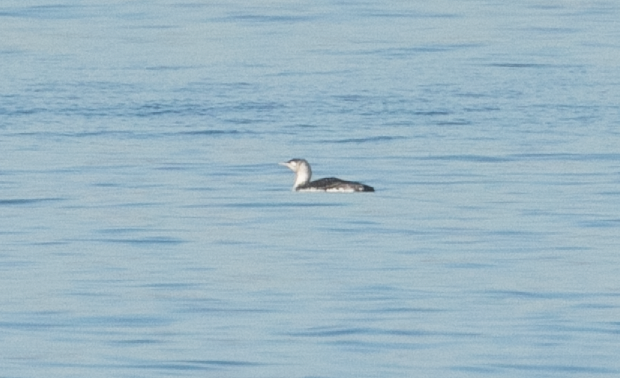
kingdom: Animalia
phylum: Chordata
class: Aves
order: Gaviiformes
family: Gaviidae
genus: Gavia
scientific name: Gavia stellata
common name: Red-throated loon
